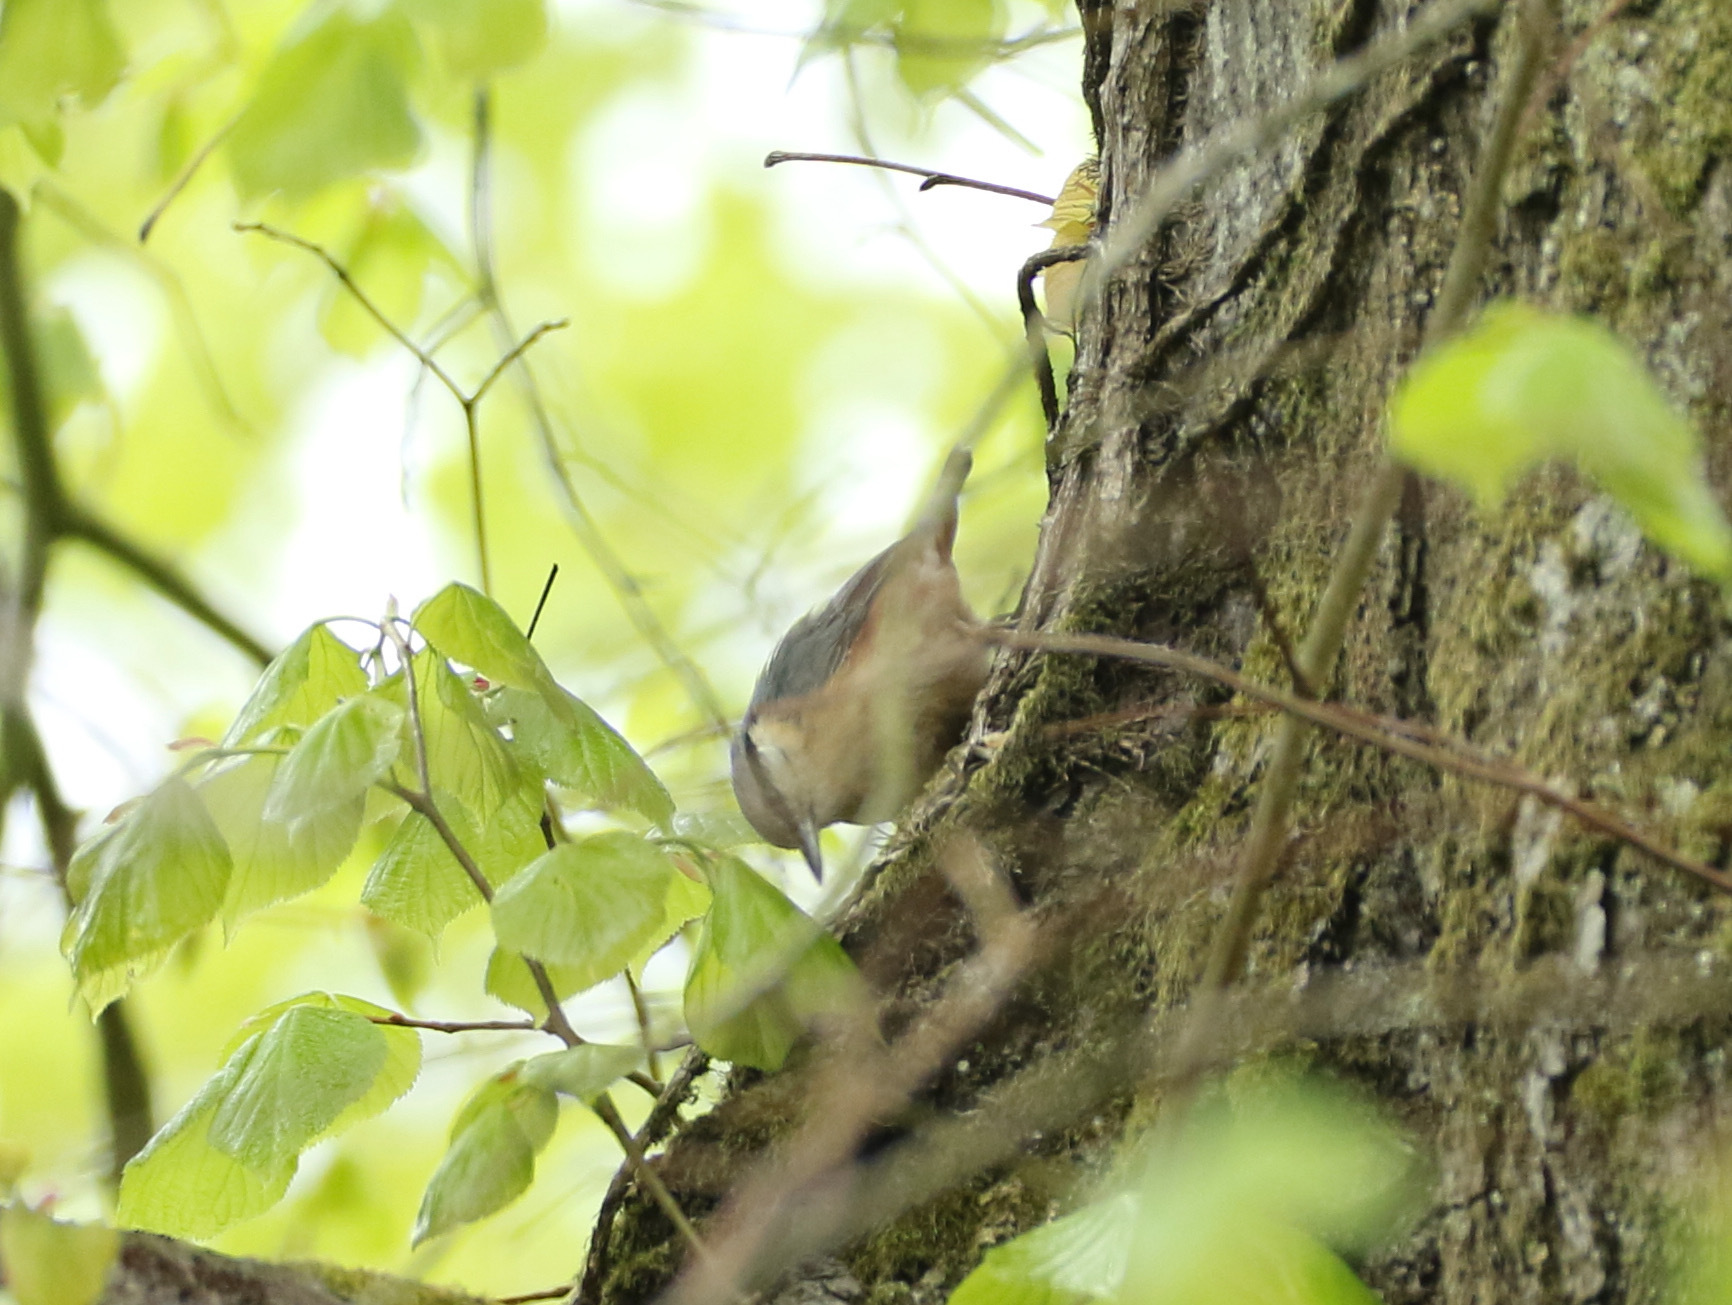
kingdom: Animalia
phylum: Chordata
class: Aves
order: Passeriformes
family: Sittidae
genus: Sitta
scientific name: Sitta europaea
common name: Eurasian nuthatch
